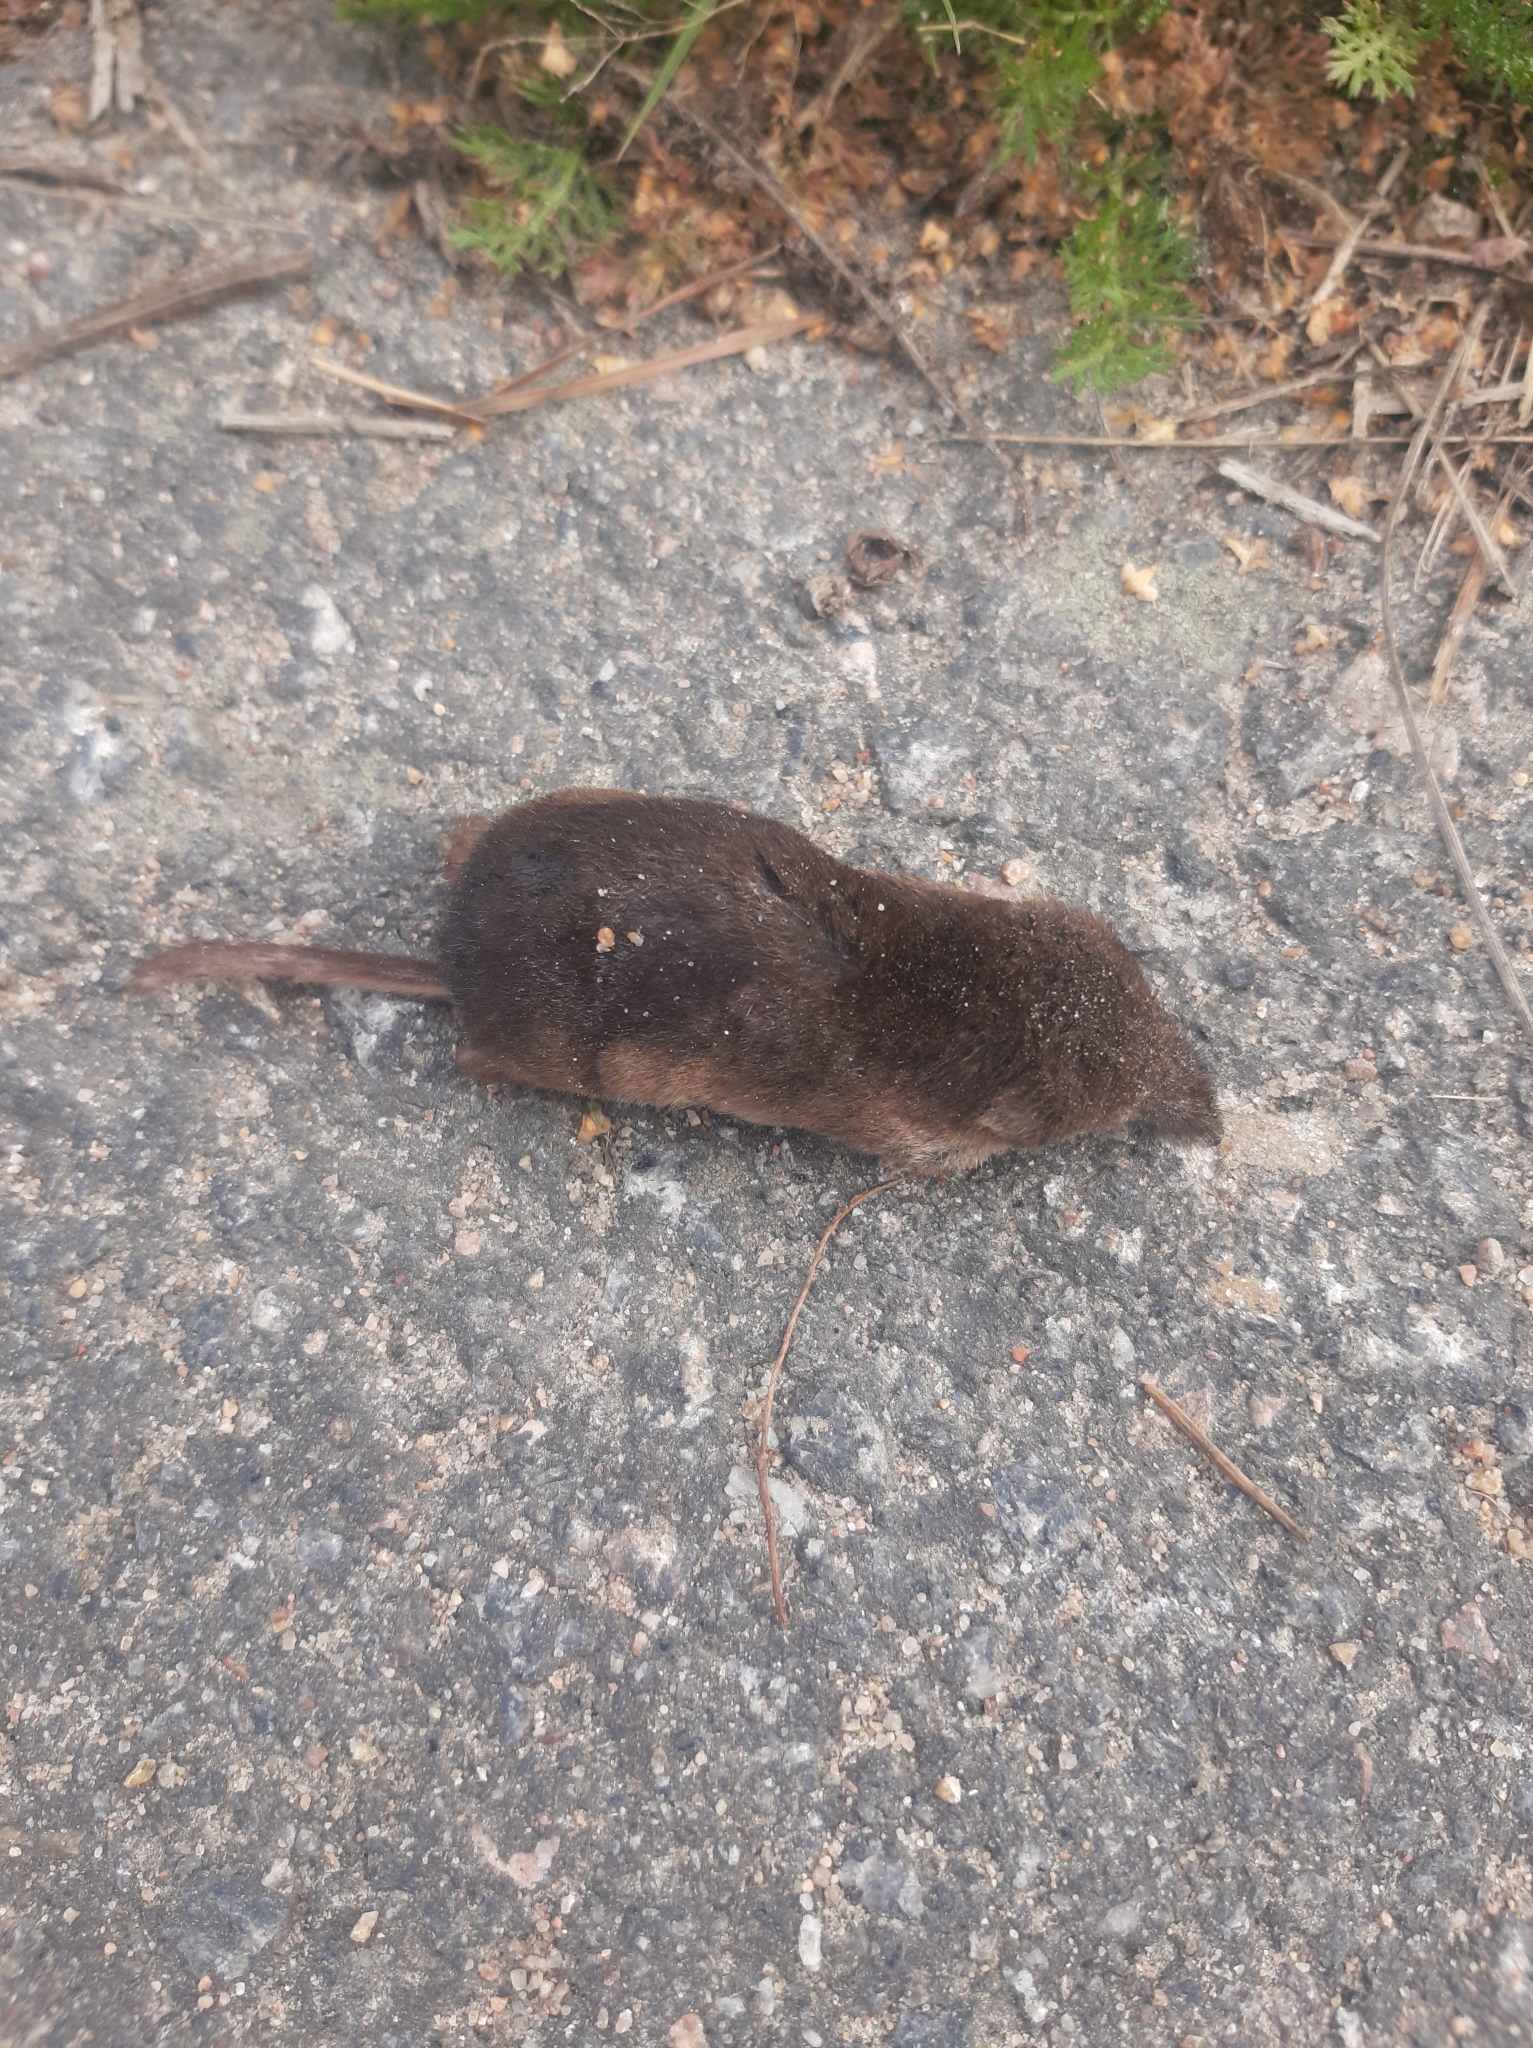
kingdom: Animalia
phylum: Chordata
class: Mammalia
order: Soricomorpha
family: Soricidae
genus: Sorex
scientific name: Sorex araneus
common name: Common shrew
